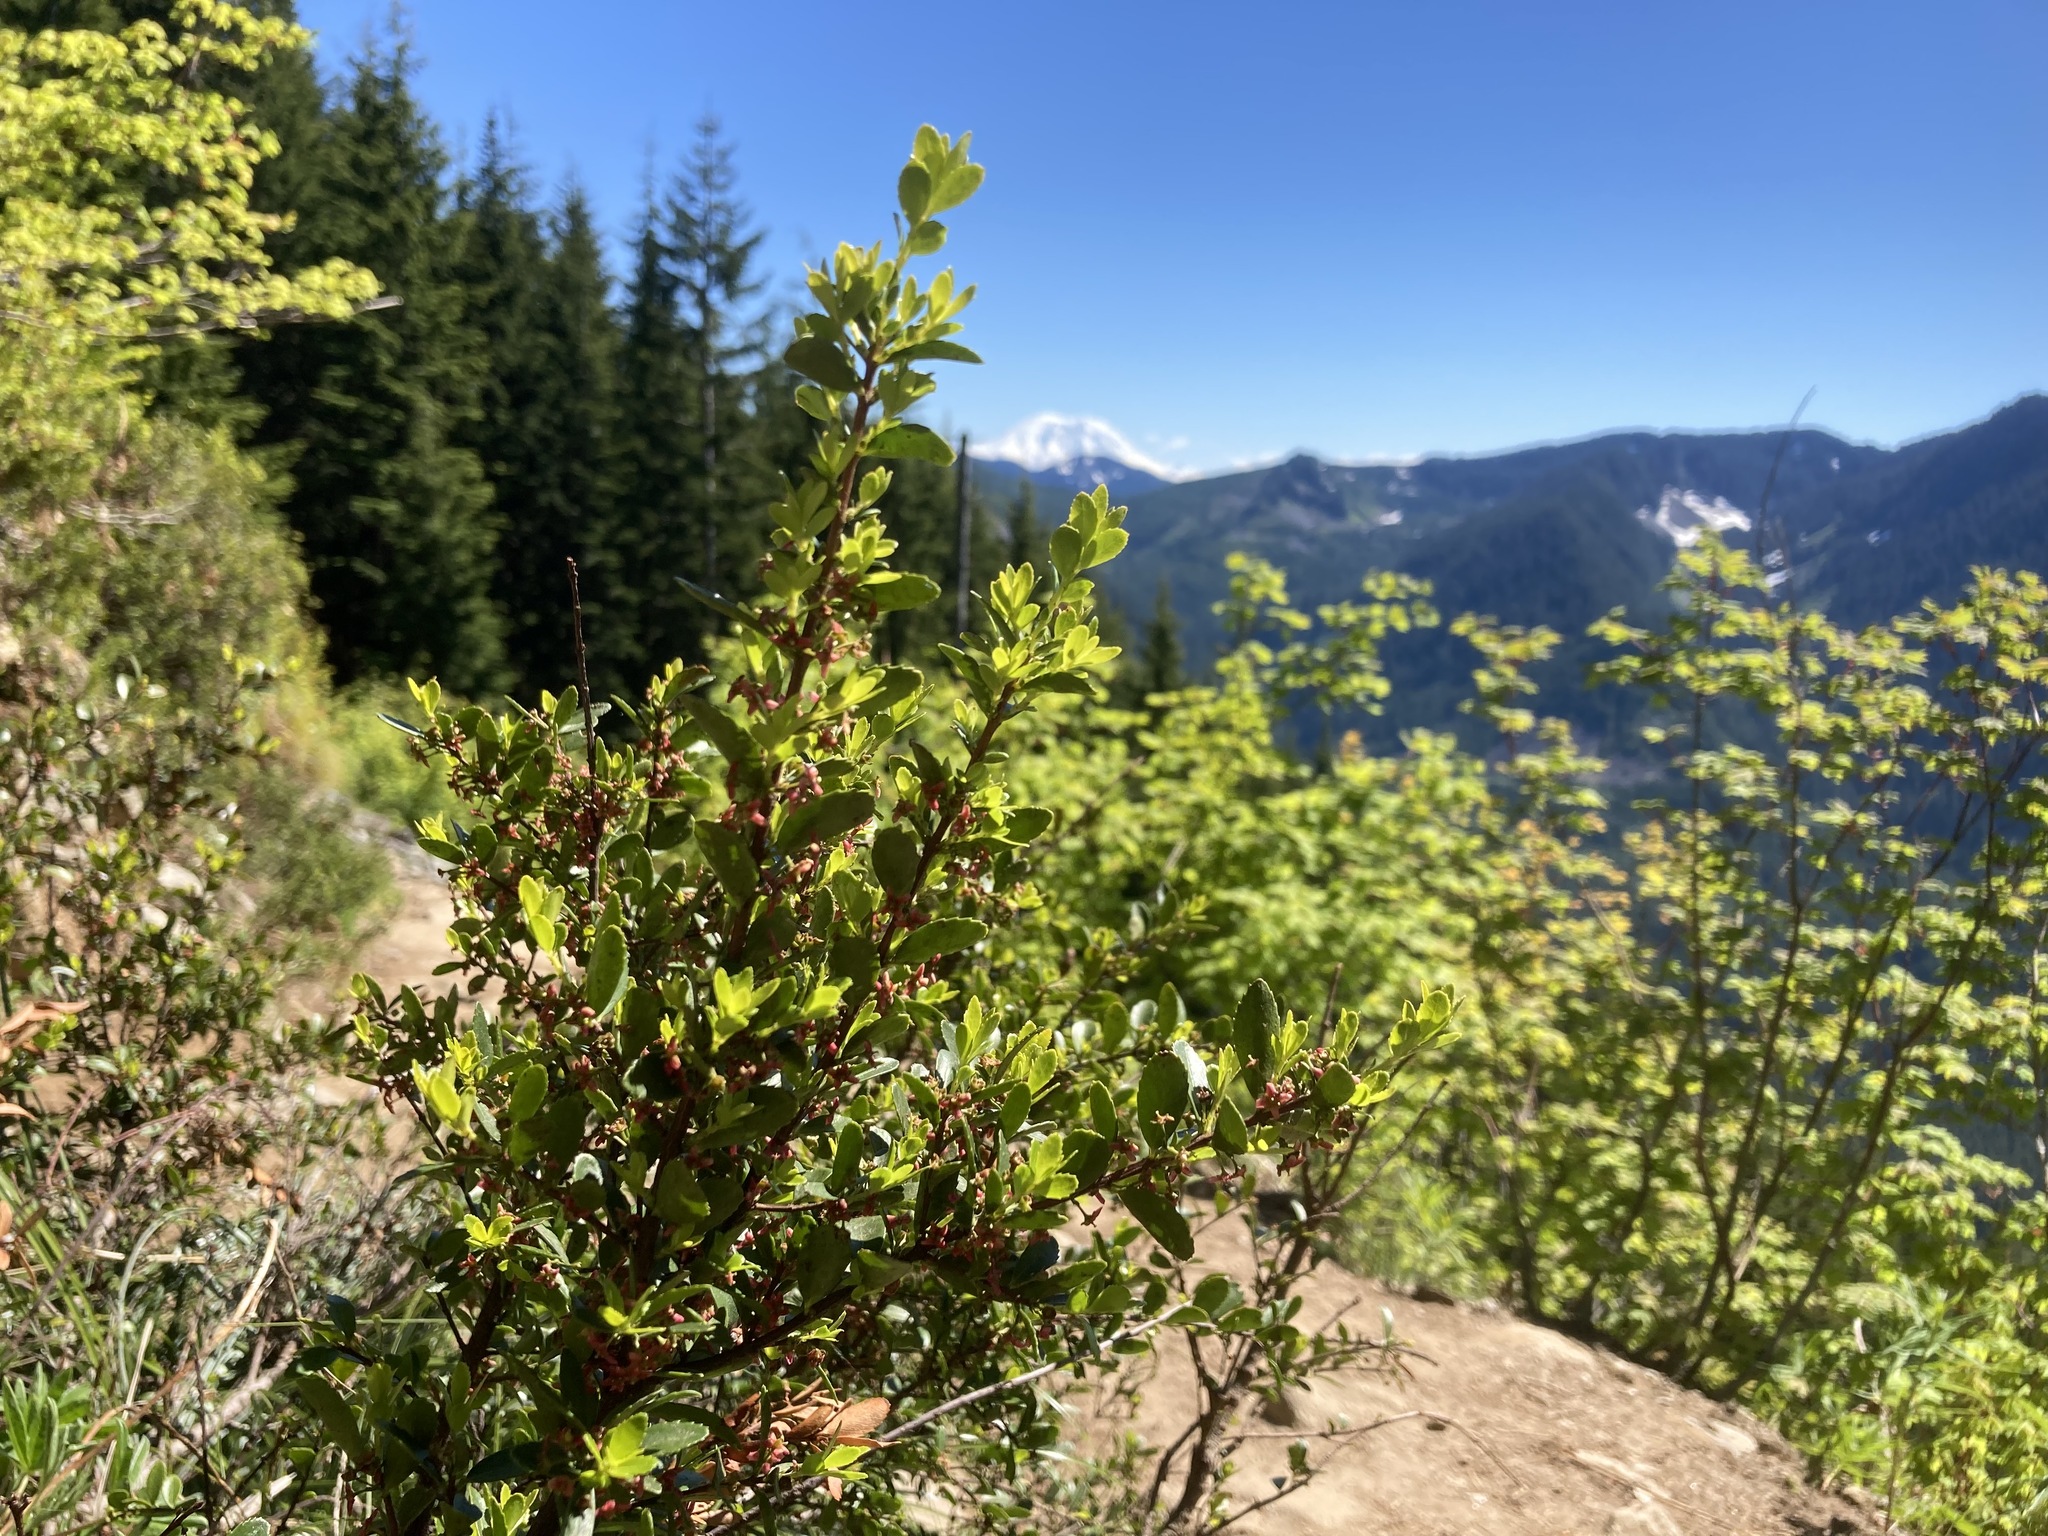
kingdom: Plantae
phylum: Tracheophyta
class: Magnoliopsida
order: Celastrales
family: Celastraceae
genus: Paxistima
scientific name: Paxistima myrsinites
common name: Mountain-lover
